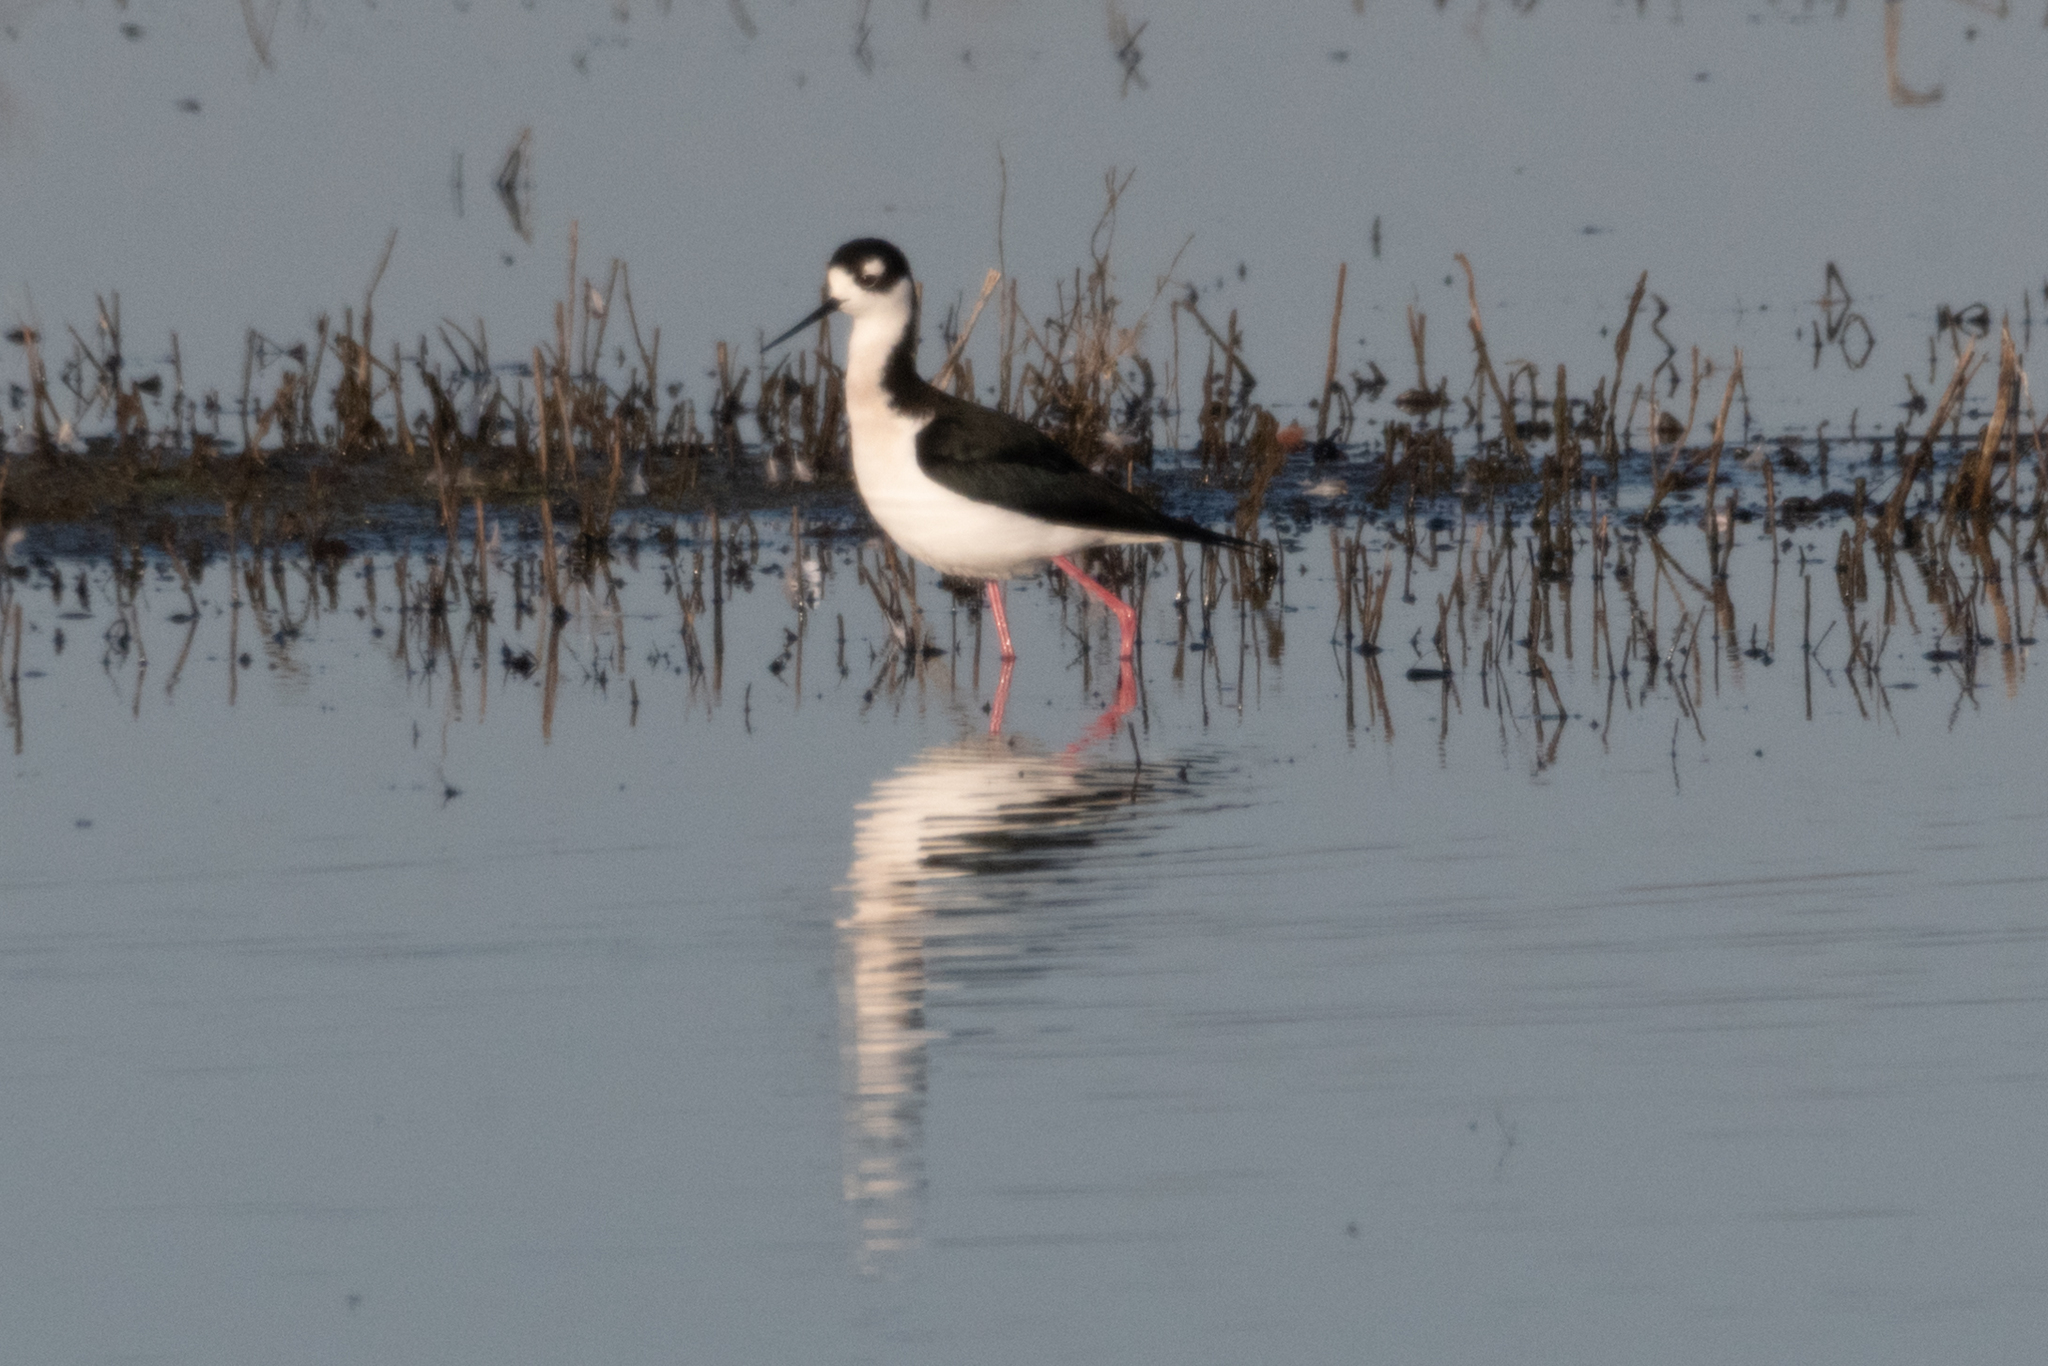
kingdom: Animalia
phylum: Chordata
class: Aves
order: Charadriiformes
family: Recurvirostridae
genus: Himantopus
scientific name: Himantopus mexicanus
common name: Black-necked stilt
